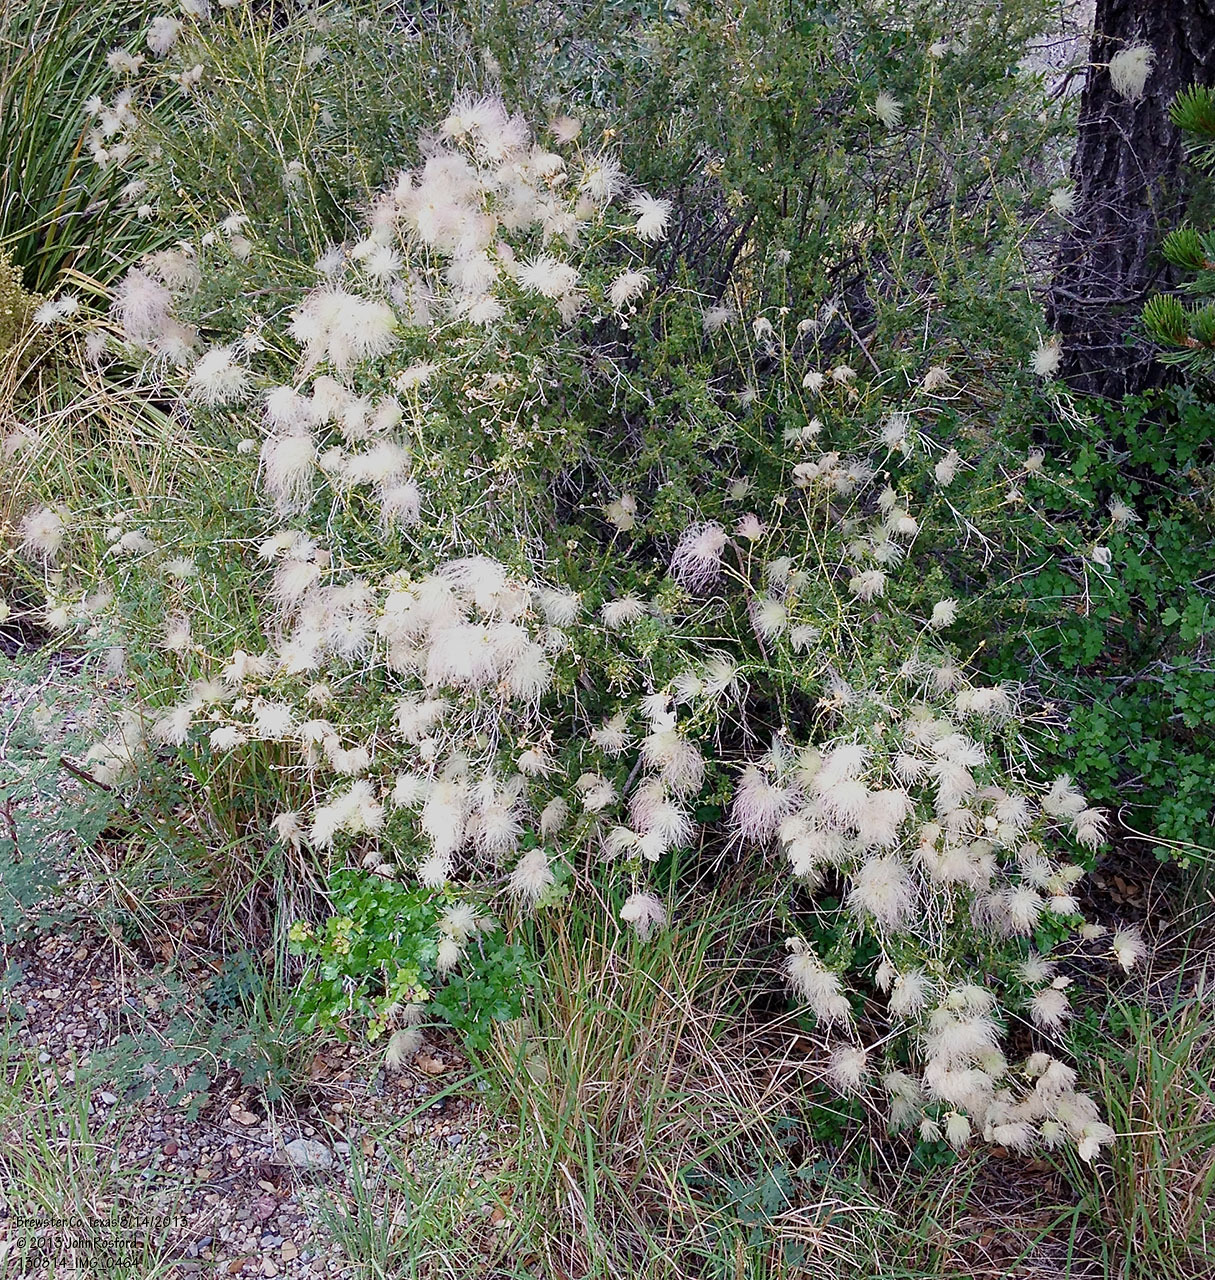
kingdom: Plantae
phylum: Tracheophyta
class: Magnoliopsida
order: Rosales
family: Rosaceae
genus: Fallugia
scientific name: Fallugia paradoxa
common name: Apache-plume
